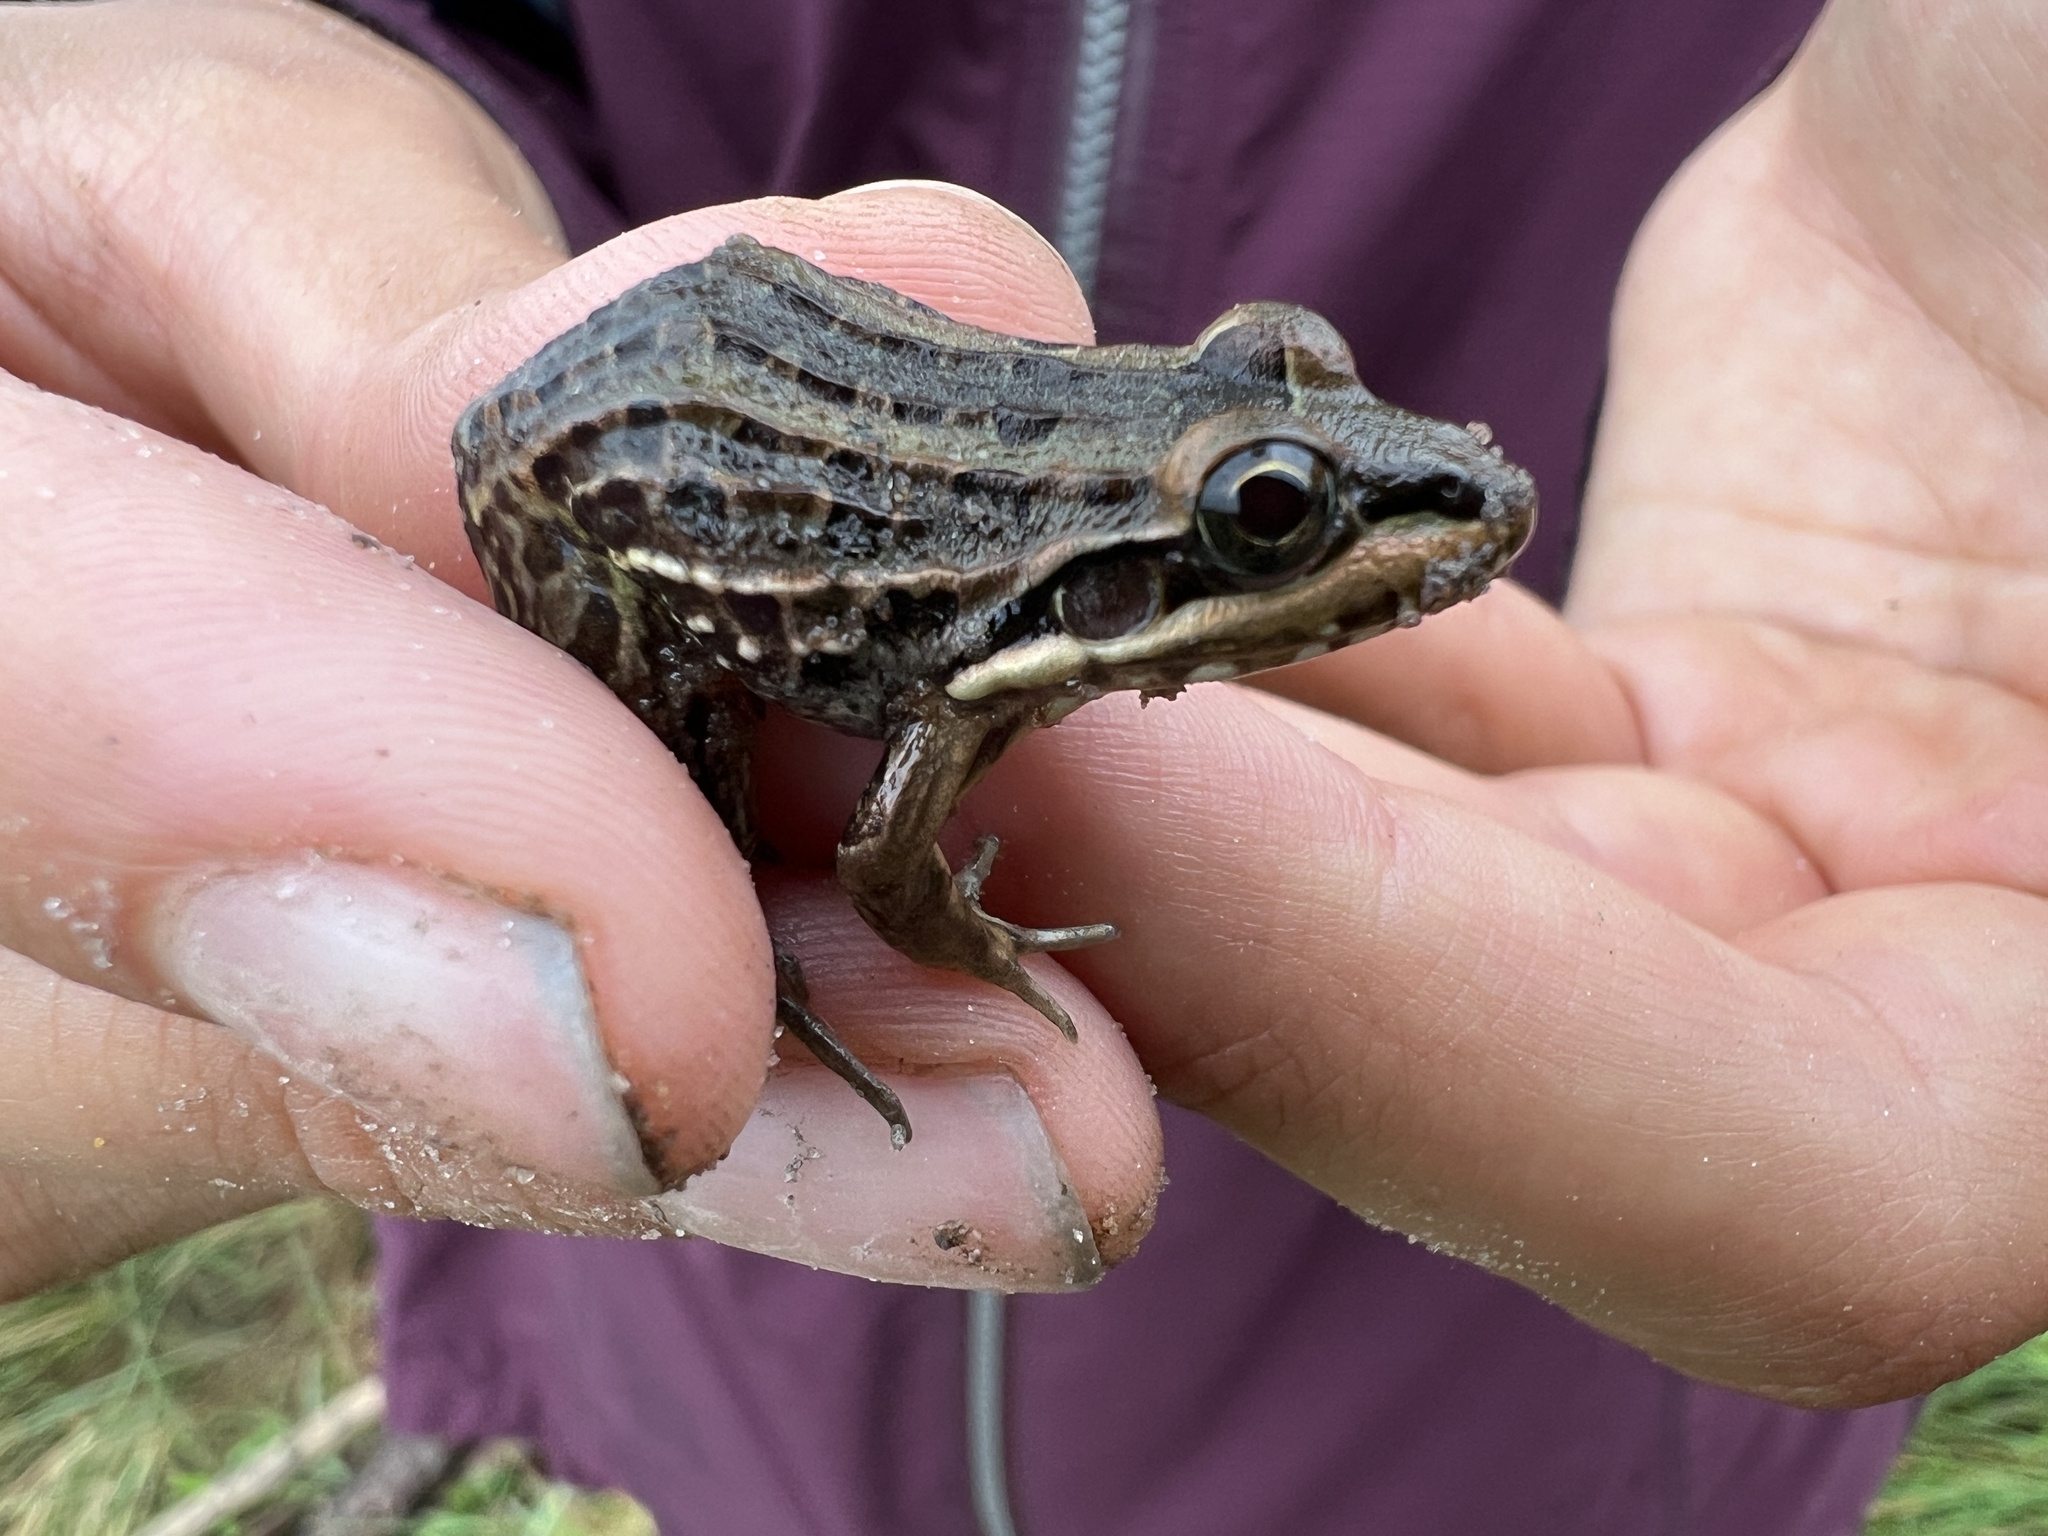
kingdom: Animalia
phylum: Chordata
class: Amphibia
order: Anura
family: Leptodactylidae
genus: Leptodactylus
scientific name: Leptodactylus latrans
